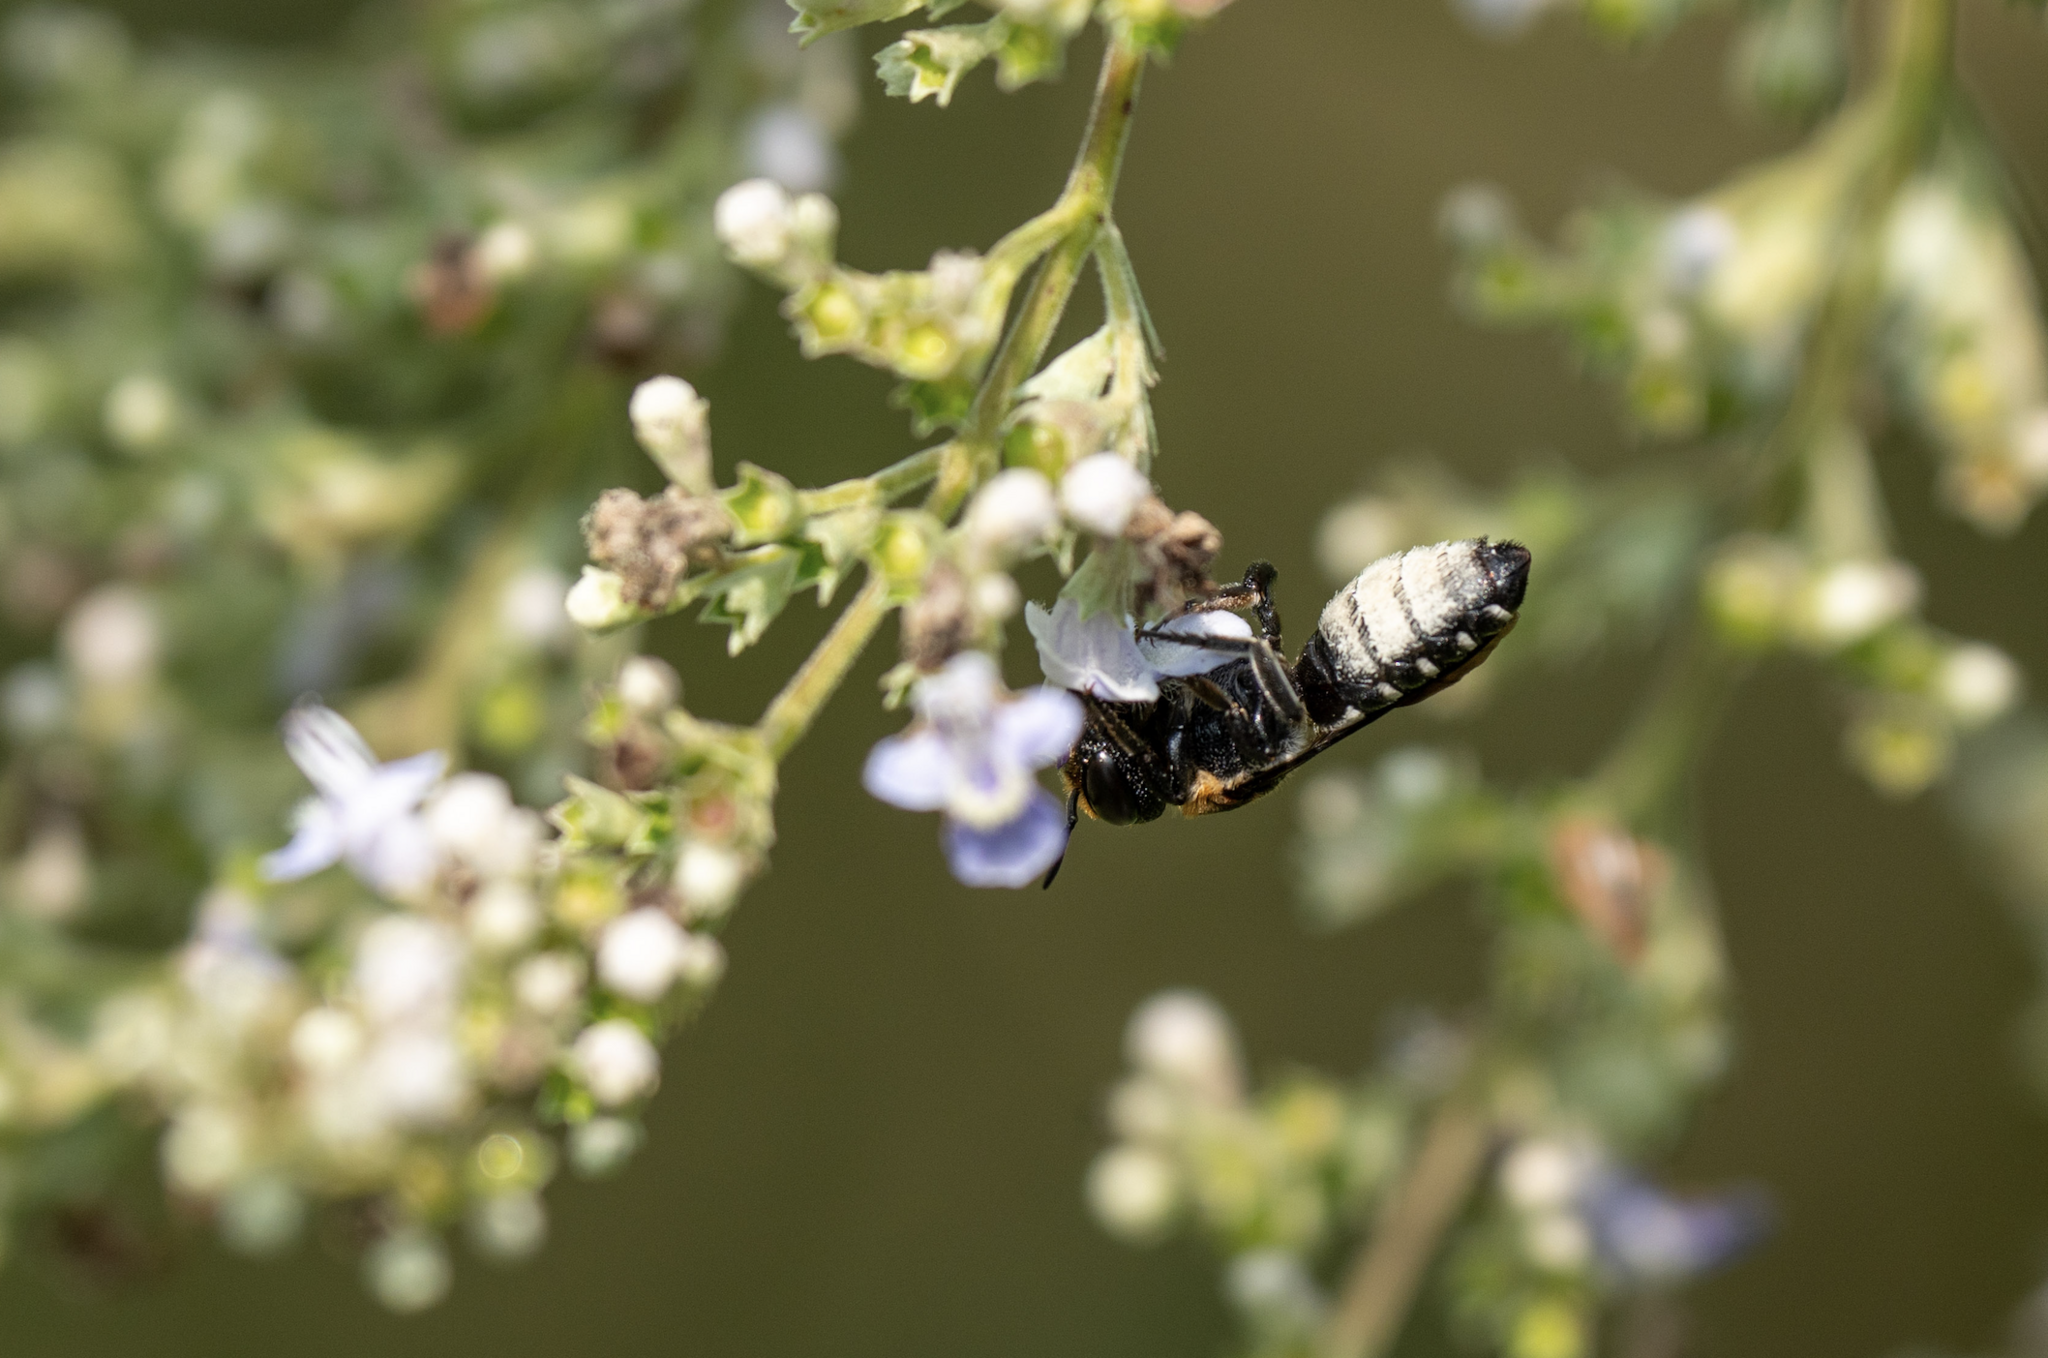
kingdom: Animalia
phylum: Arthropoda
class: Insecta
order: Hymenoptera
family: Megachilidae
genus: Megachile
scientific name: Megachile faceta
